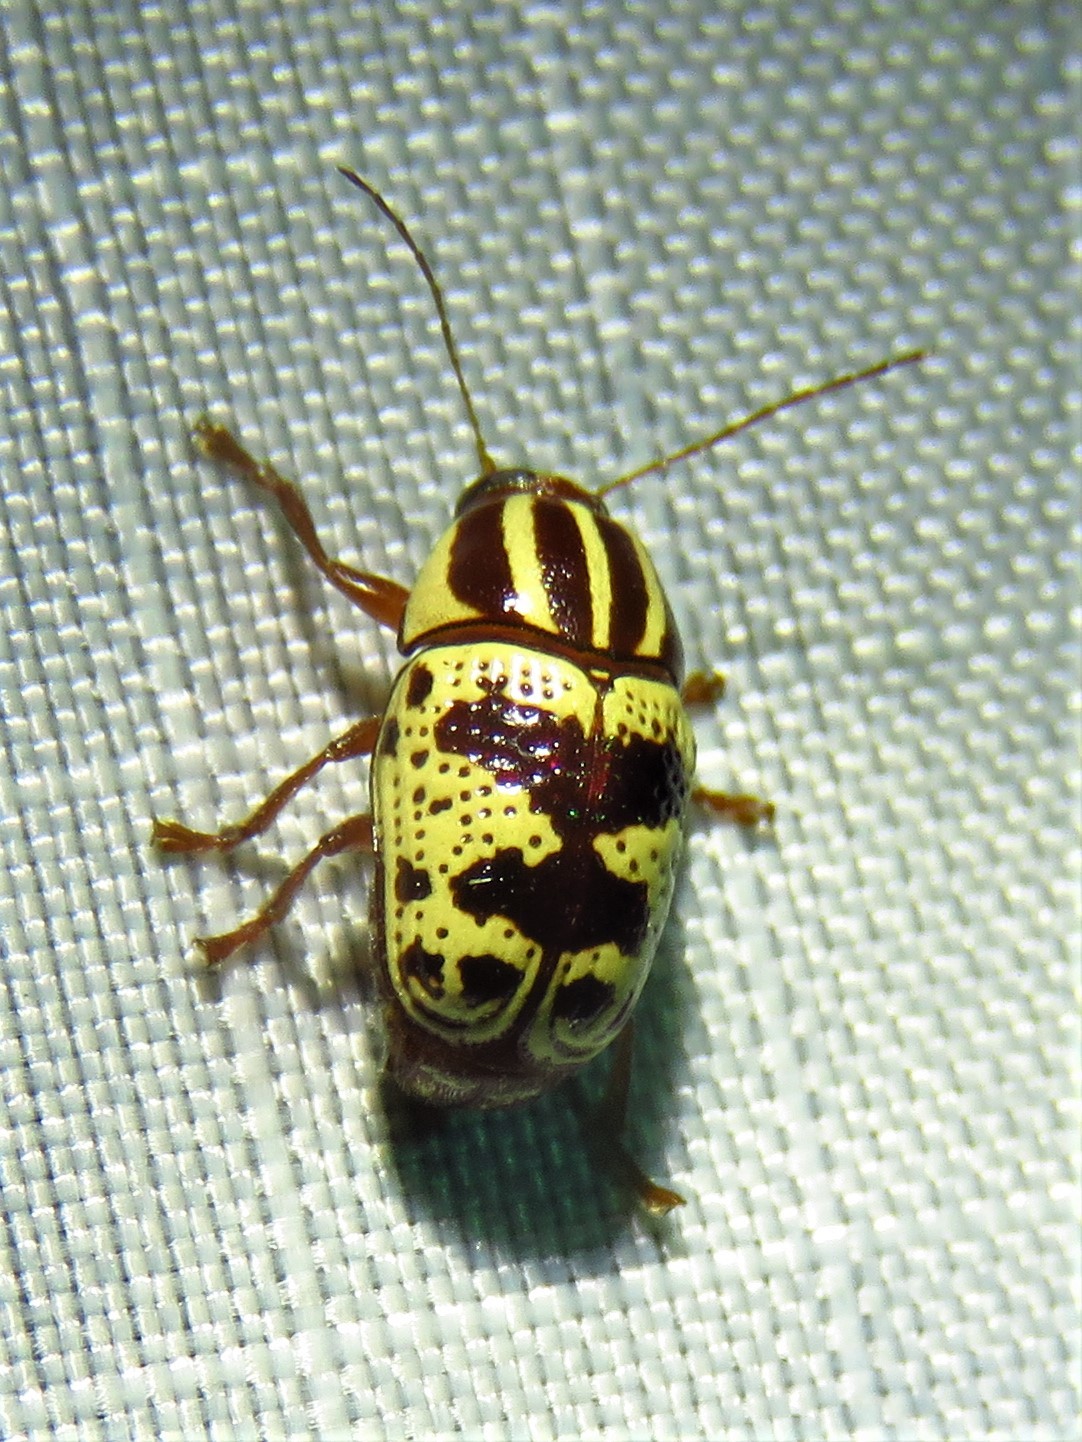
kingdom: Animalia
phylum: Arthropoda
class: Insecta
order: Coleoptera
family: Chrysomelidae
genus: Cryptocephalus
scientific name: Cryptocephalus leucomelas
